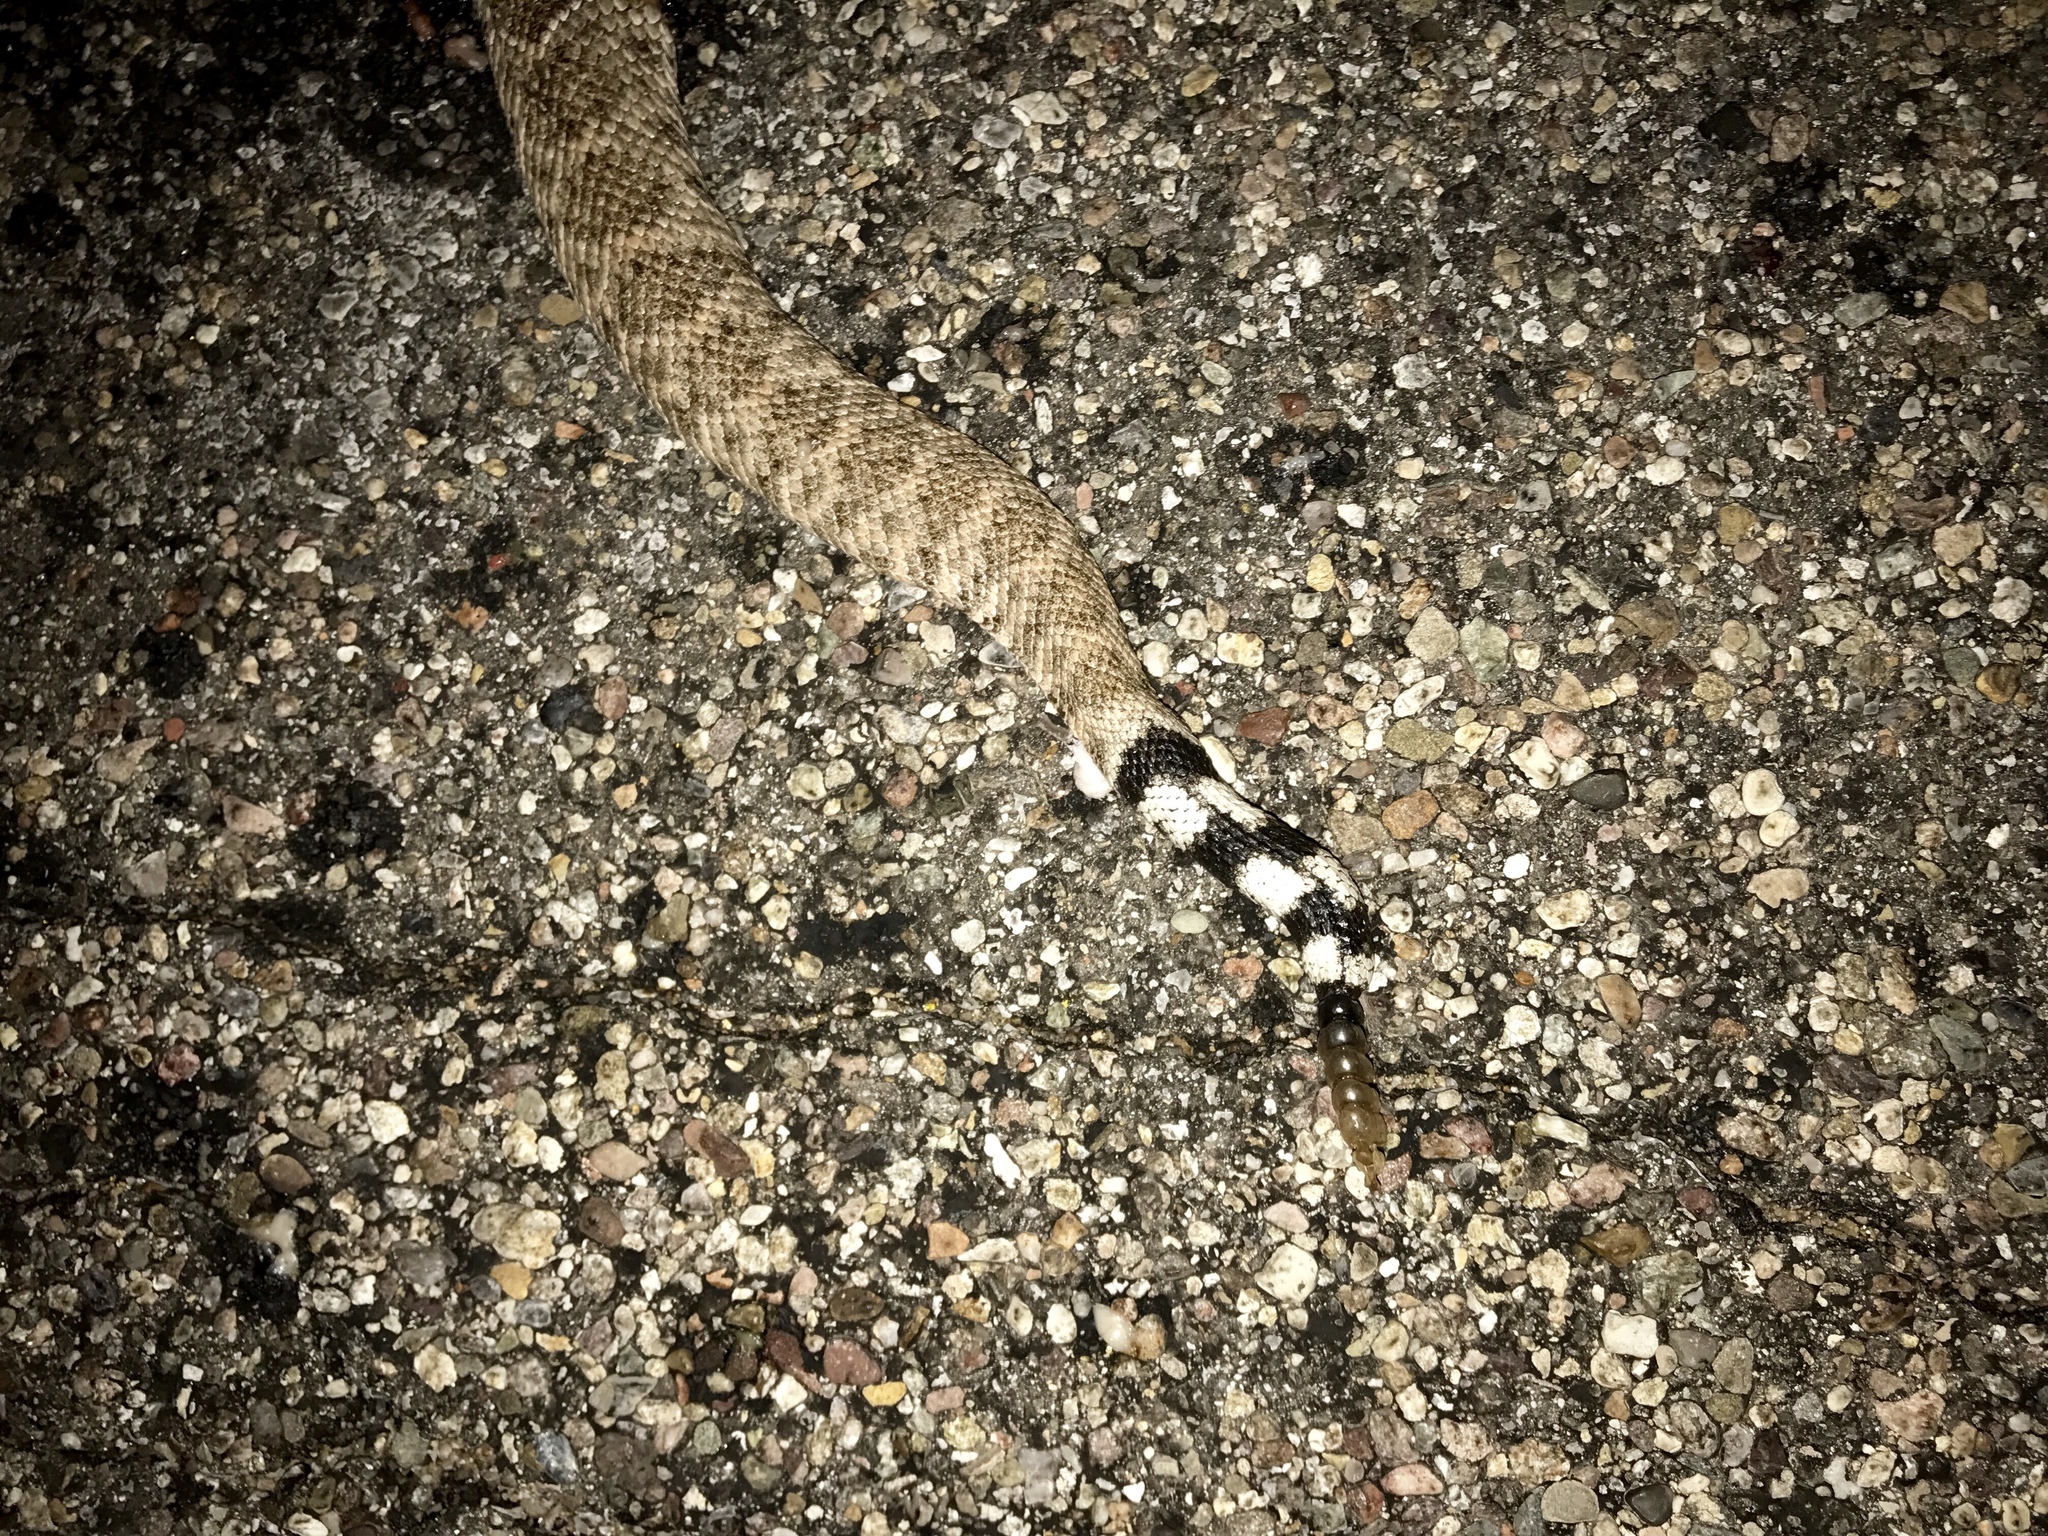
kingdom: Animalia
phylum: Chordata
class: Squamata
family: Viperidae
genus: Crotalus
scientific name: Crotalus atrox
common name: Western diamond-backed rattlesnake
